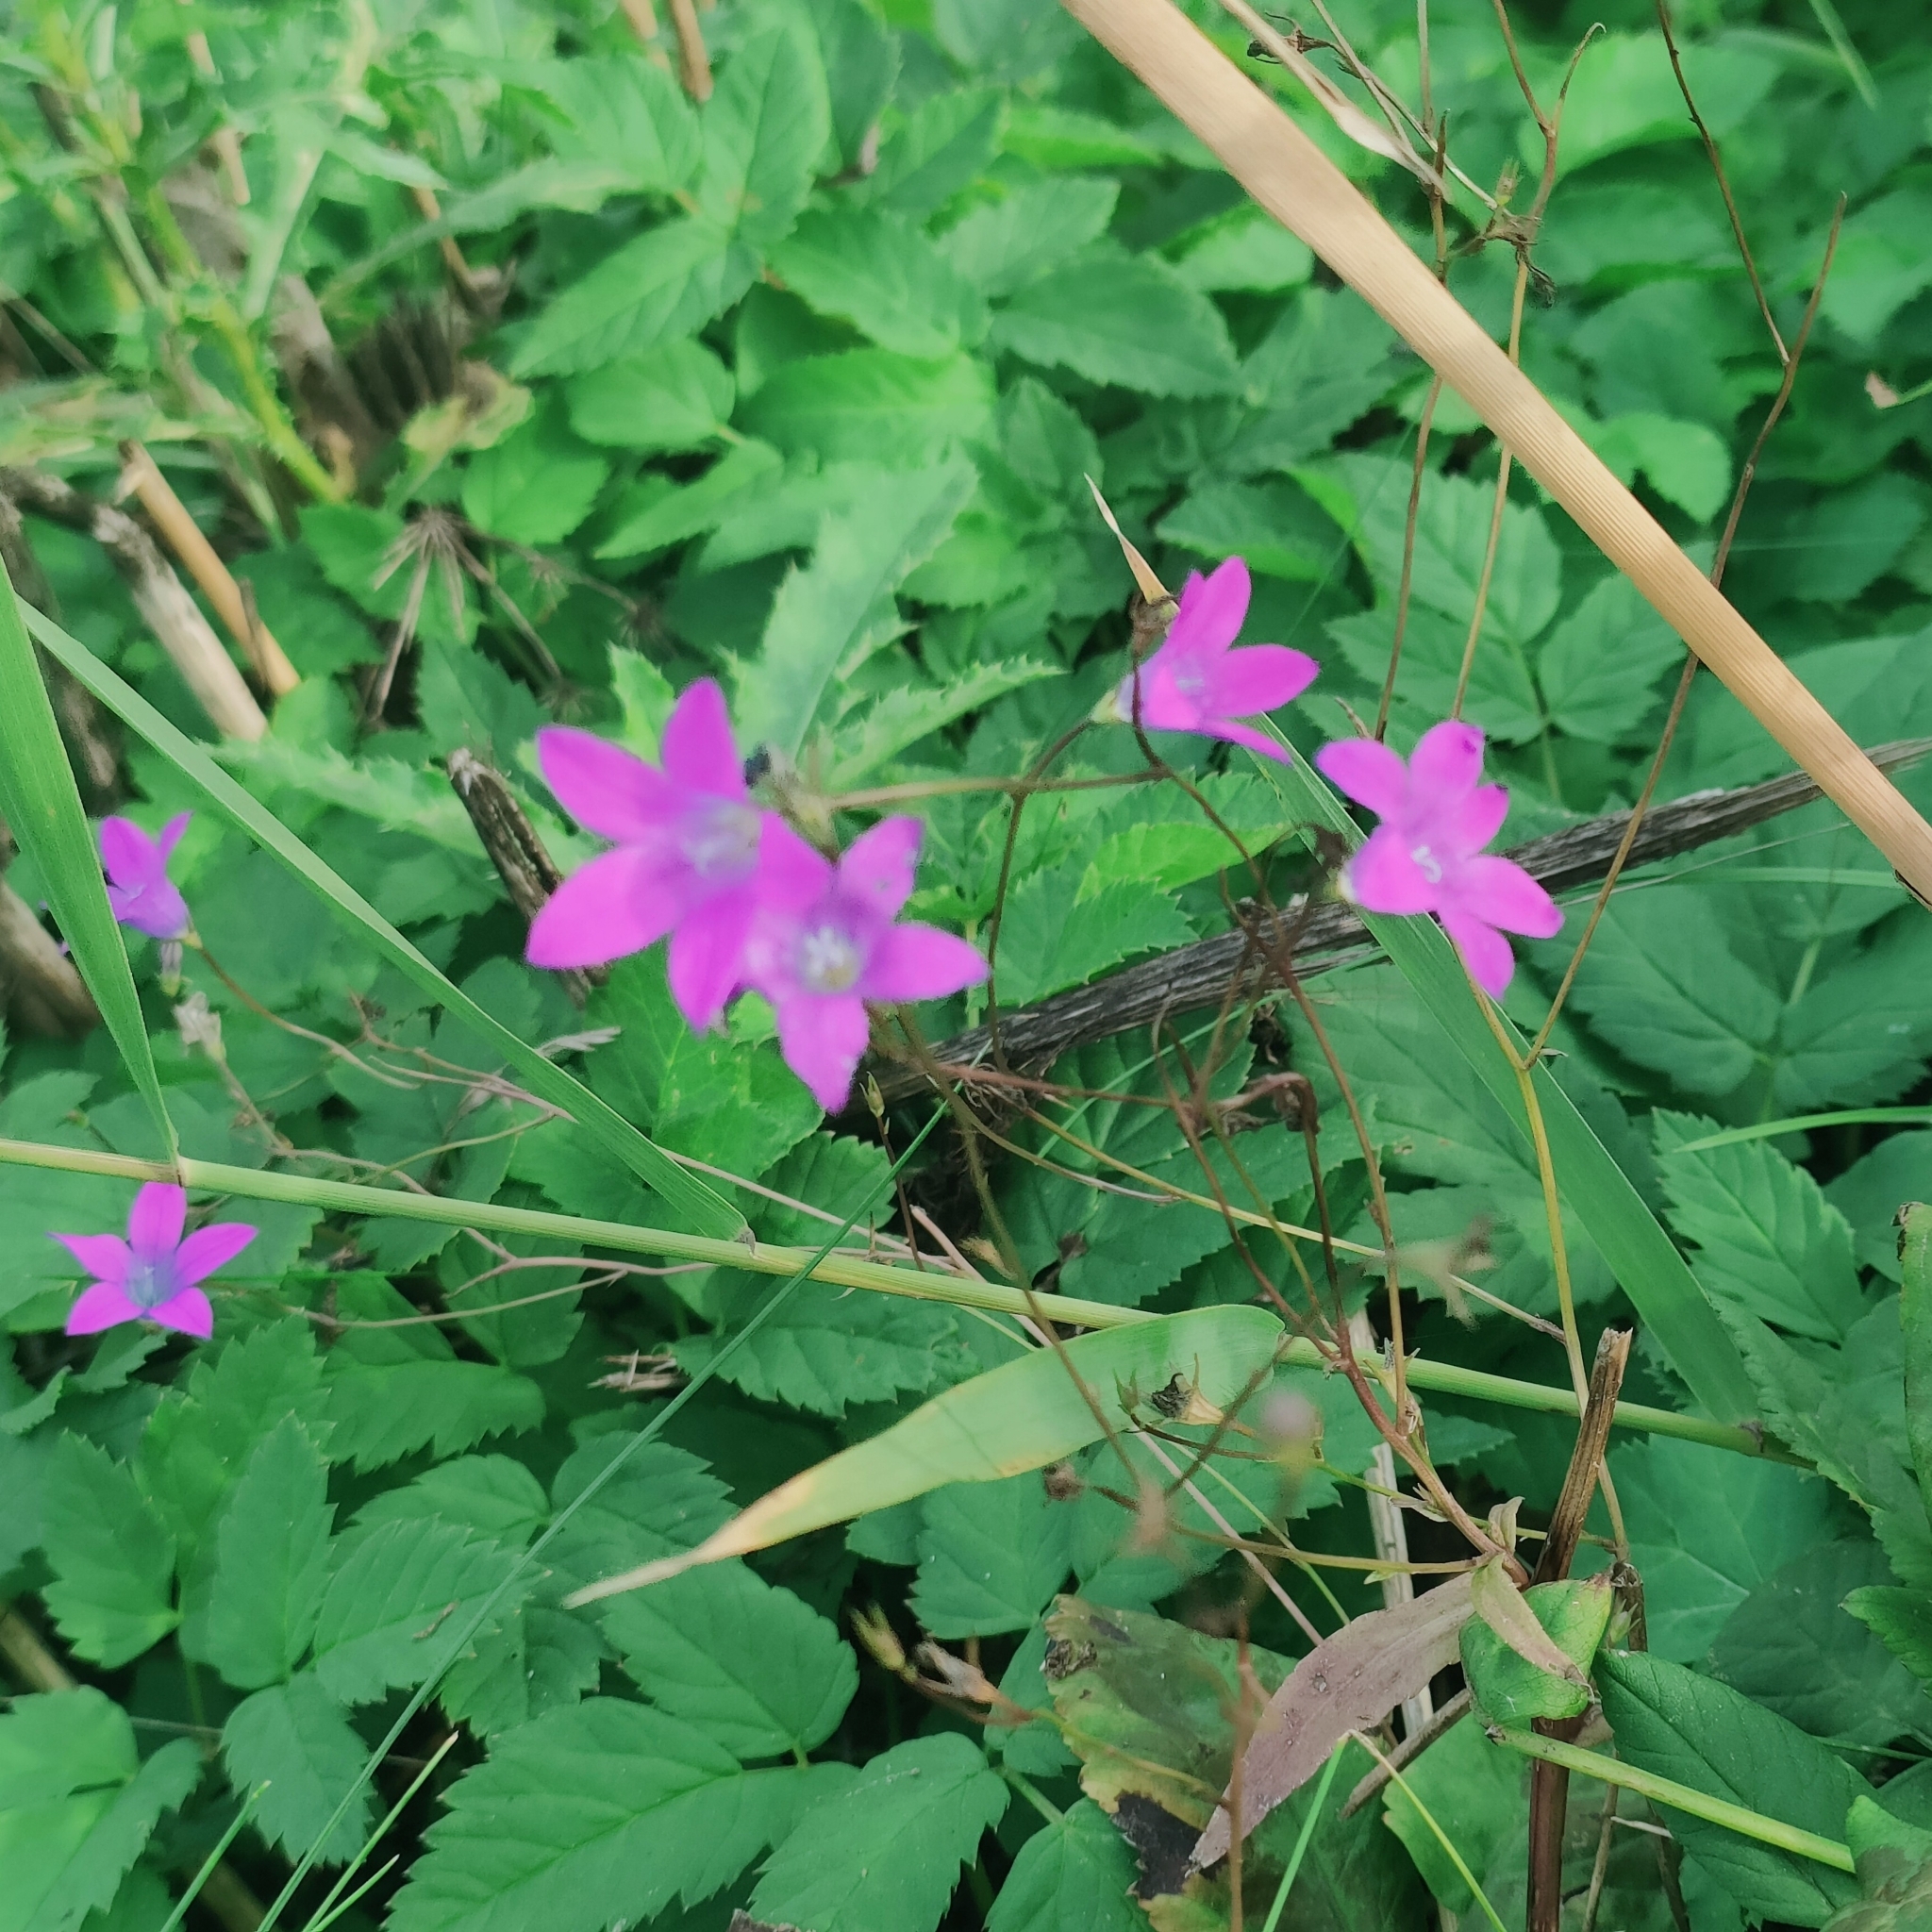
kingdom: Plantae
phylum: Tracheophyta
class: Magnoliopsida
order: Asterales
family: Campanulaceae
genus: Campanula
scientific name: Campanula patula
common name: Spreading bellflower
